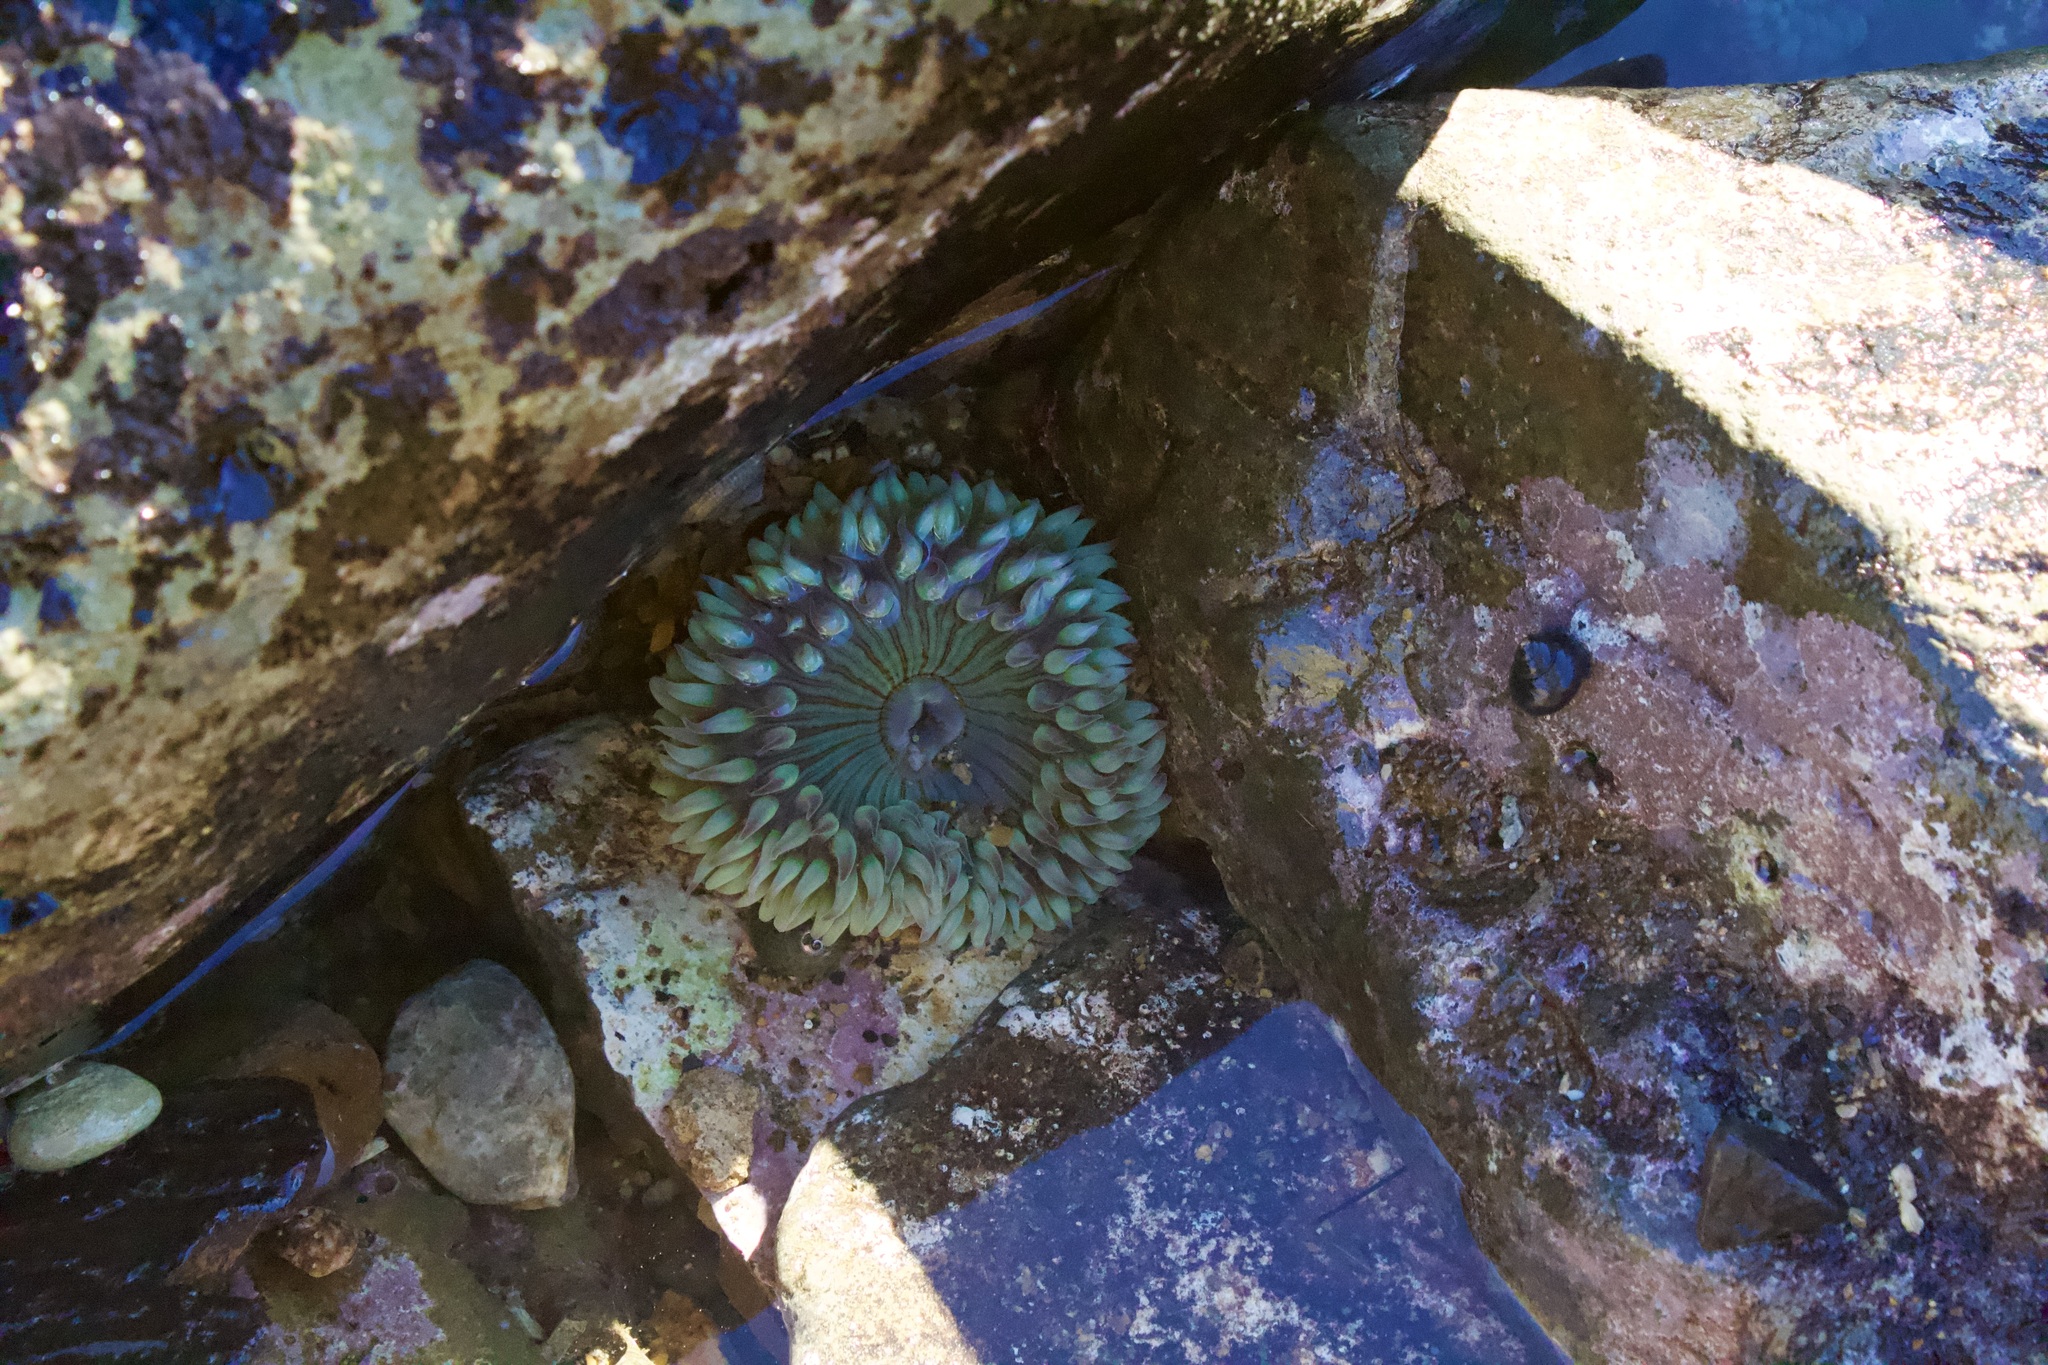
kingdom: Animalia
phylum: Cnidaria
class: Anthozoa
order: Actiniaria
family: Actiniidae
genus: Anthopleura
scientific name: Anthopleura sola
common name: Sun anemone
